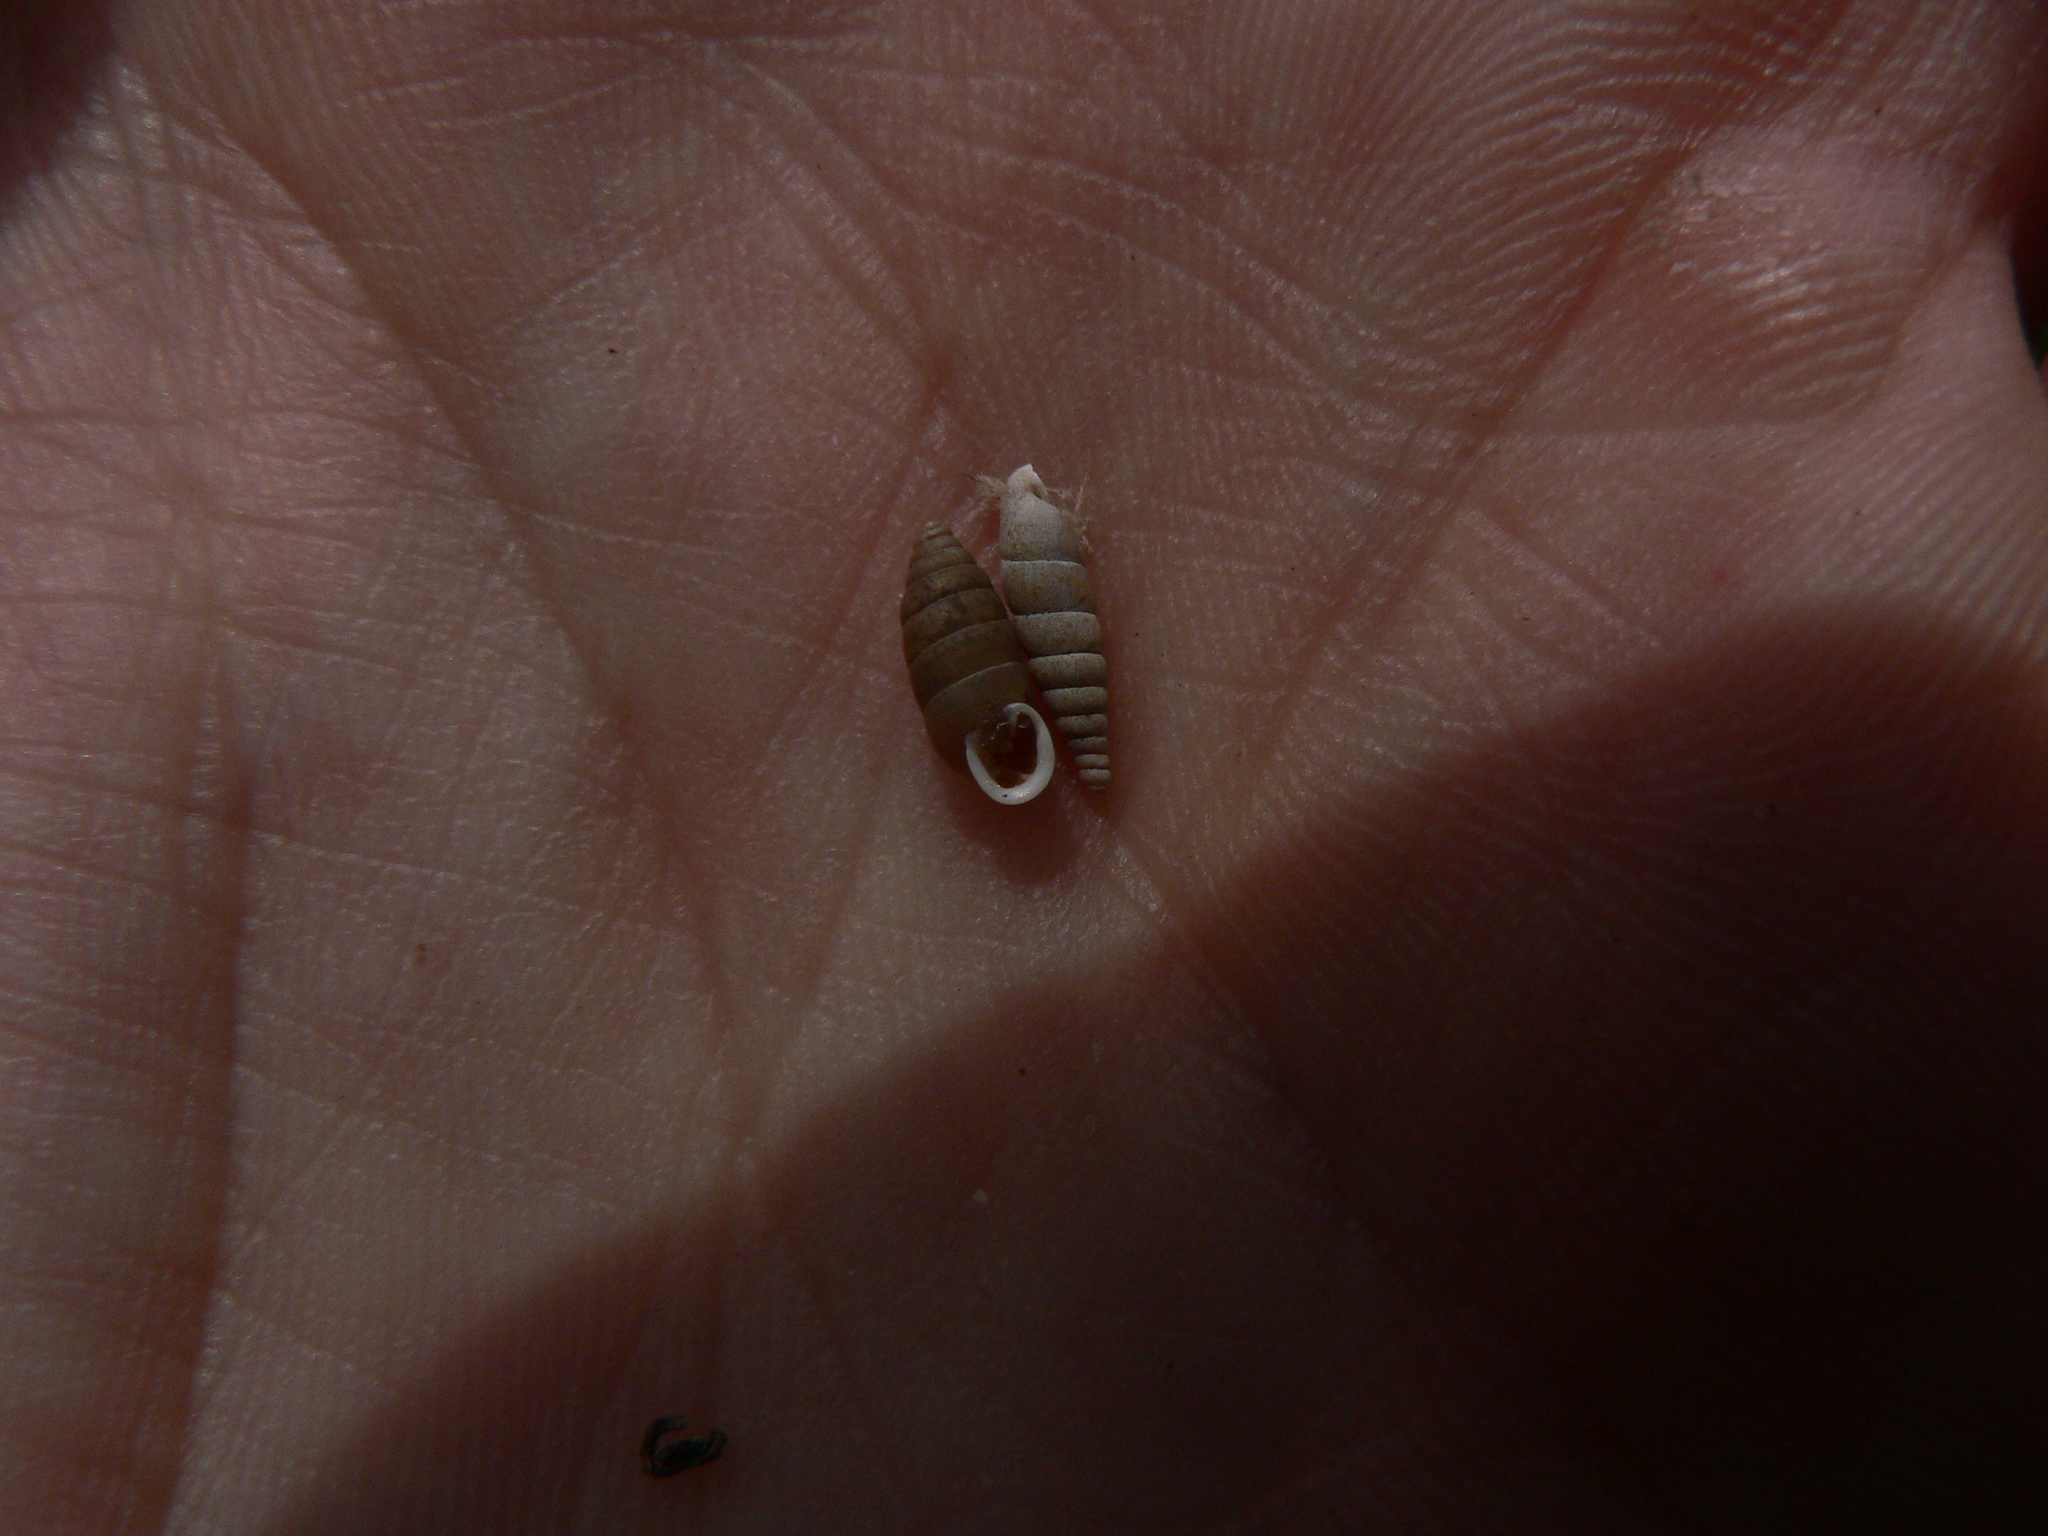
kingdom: Animalia
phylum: Mollusca
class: Gastropoda
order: Stylommatophora
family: Chondrinidae
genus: Granaria
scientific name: Granaria variabilis
